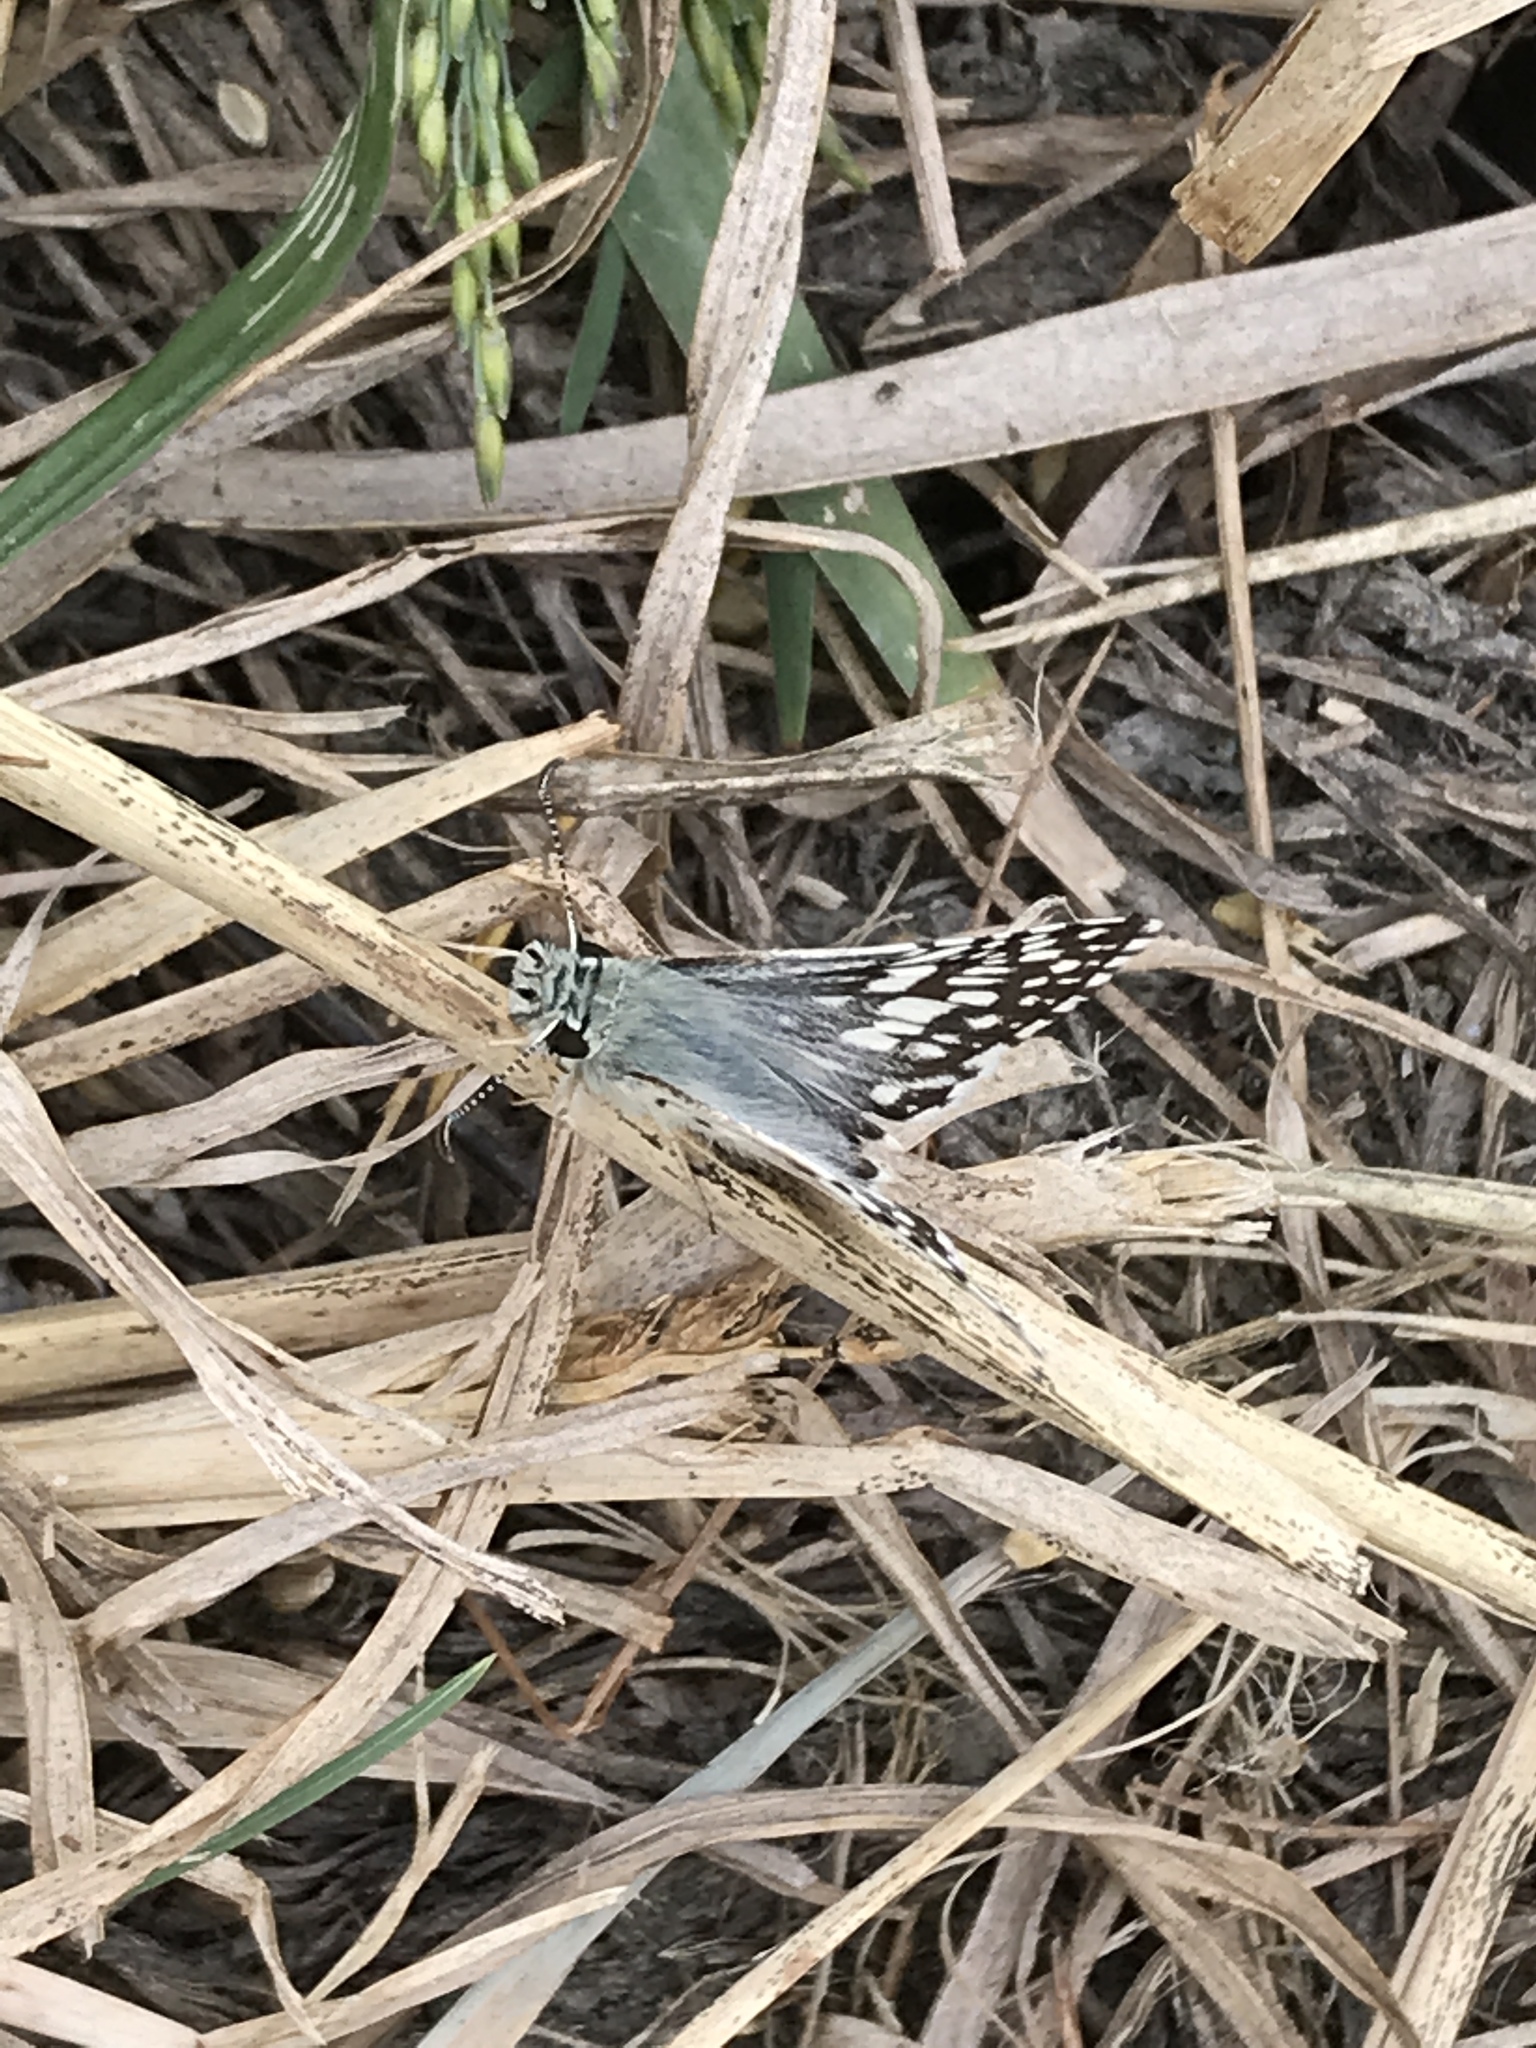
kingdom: Animalia
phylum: Arthropoda
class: Insecta
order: Lepidoptera
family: Hesperiidae
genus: Burnsius
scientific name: Burnsius communis
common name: Common checkered-skipper
